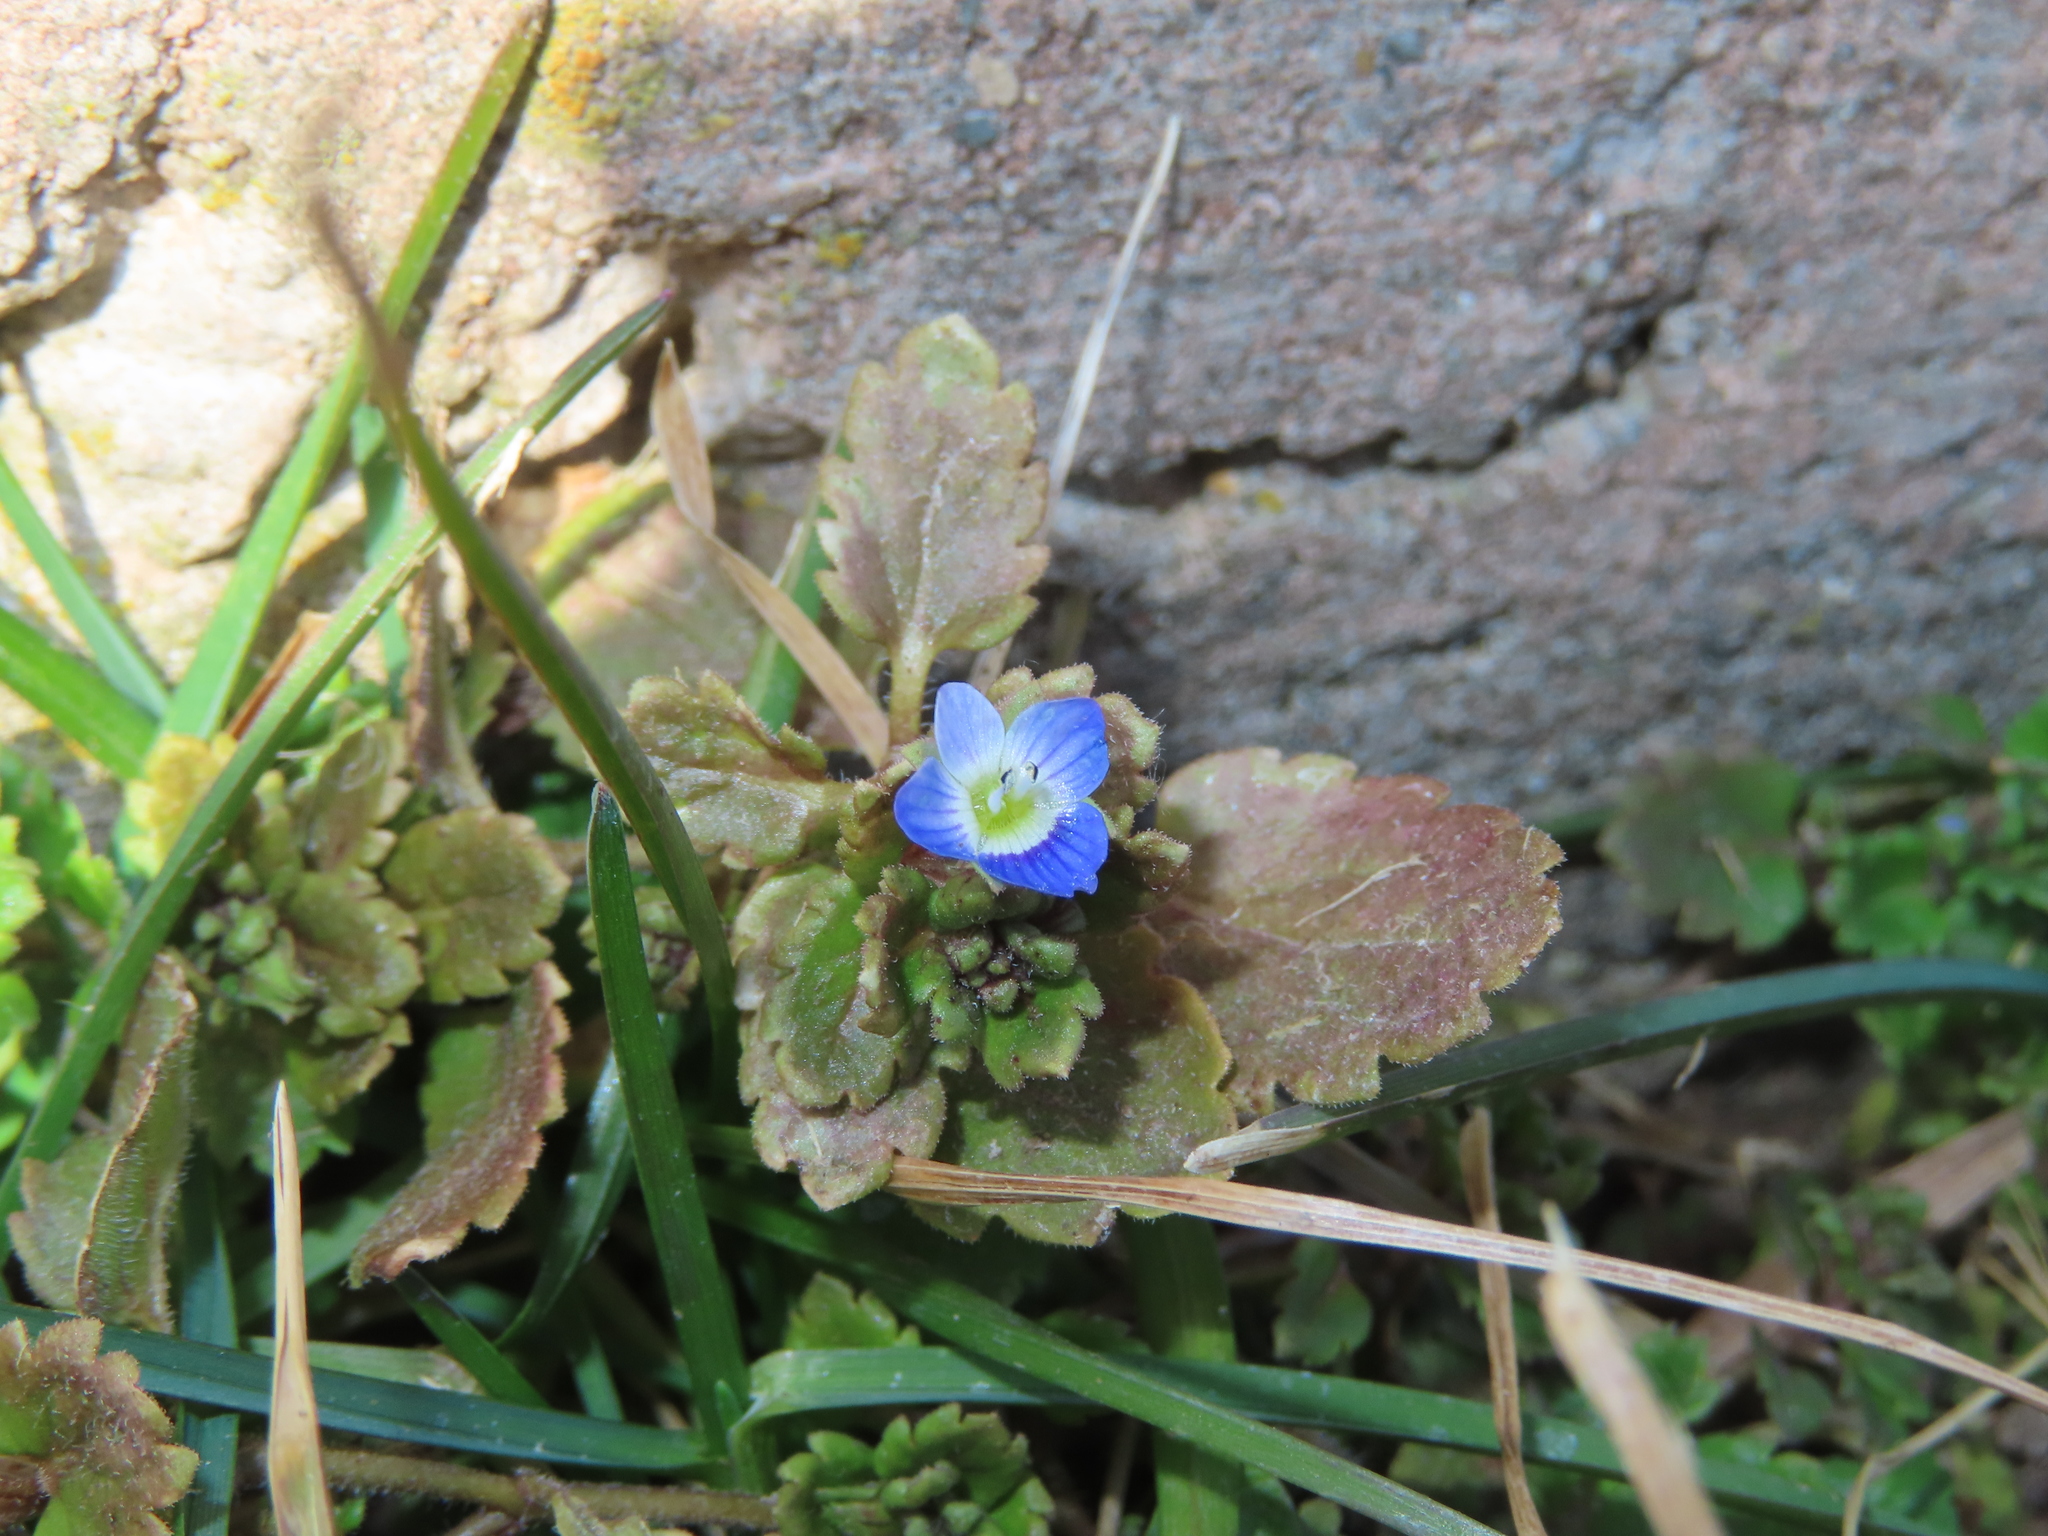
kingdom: Plantae
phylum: Tracheophyta
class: Magnoliopsida
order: Lamiales
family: Plantaginaceae
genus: Veronica
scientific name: Veronica polita
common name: Grey field-speedwell
